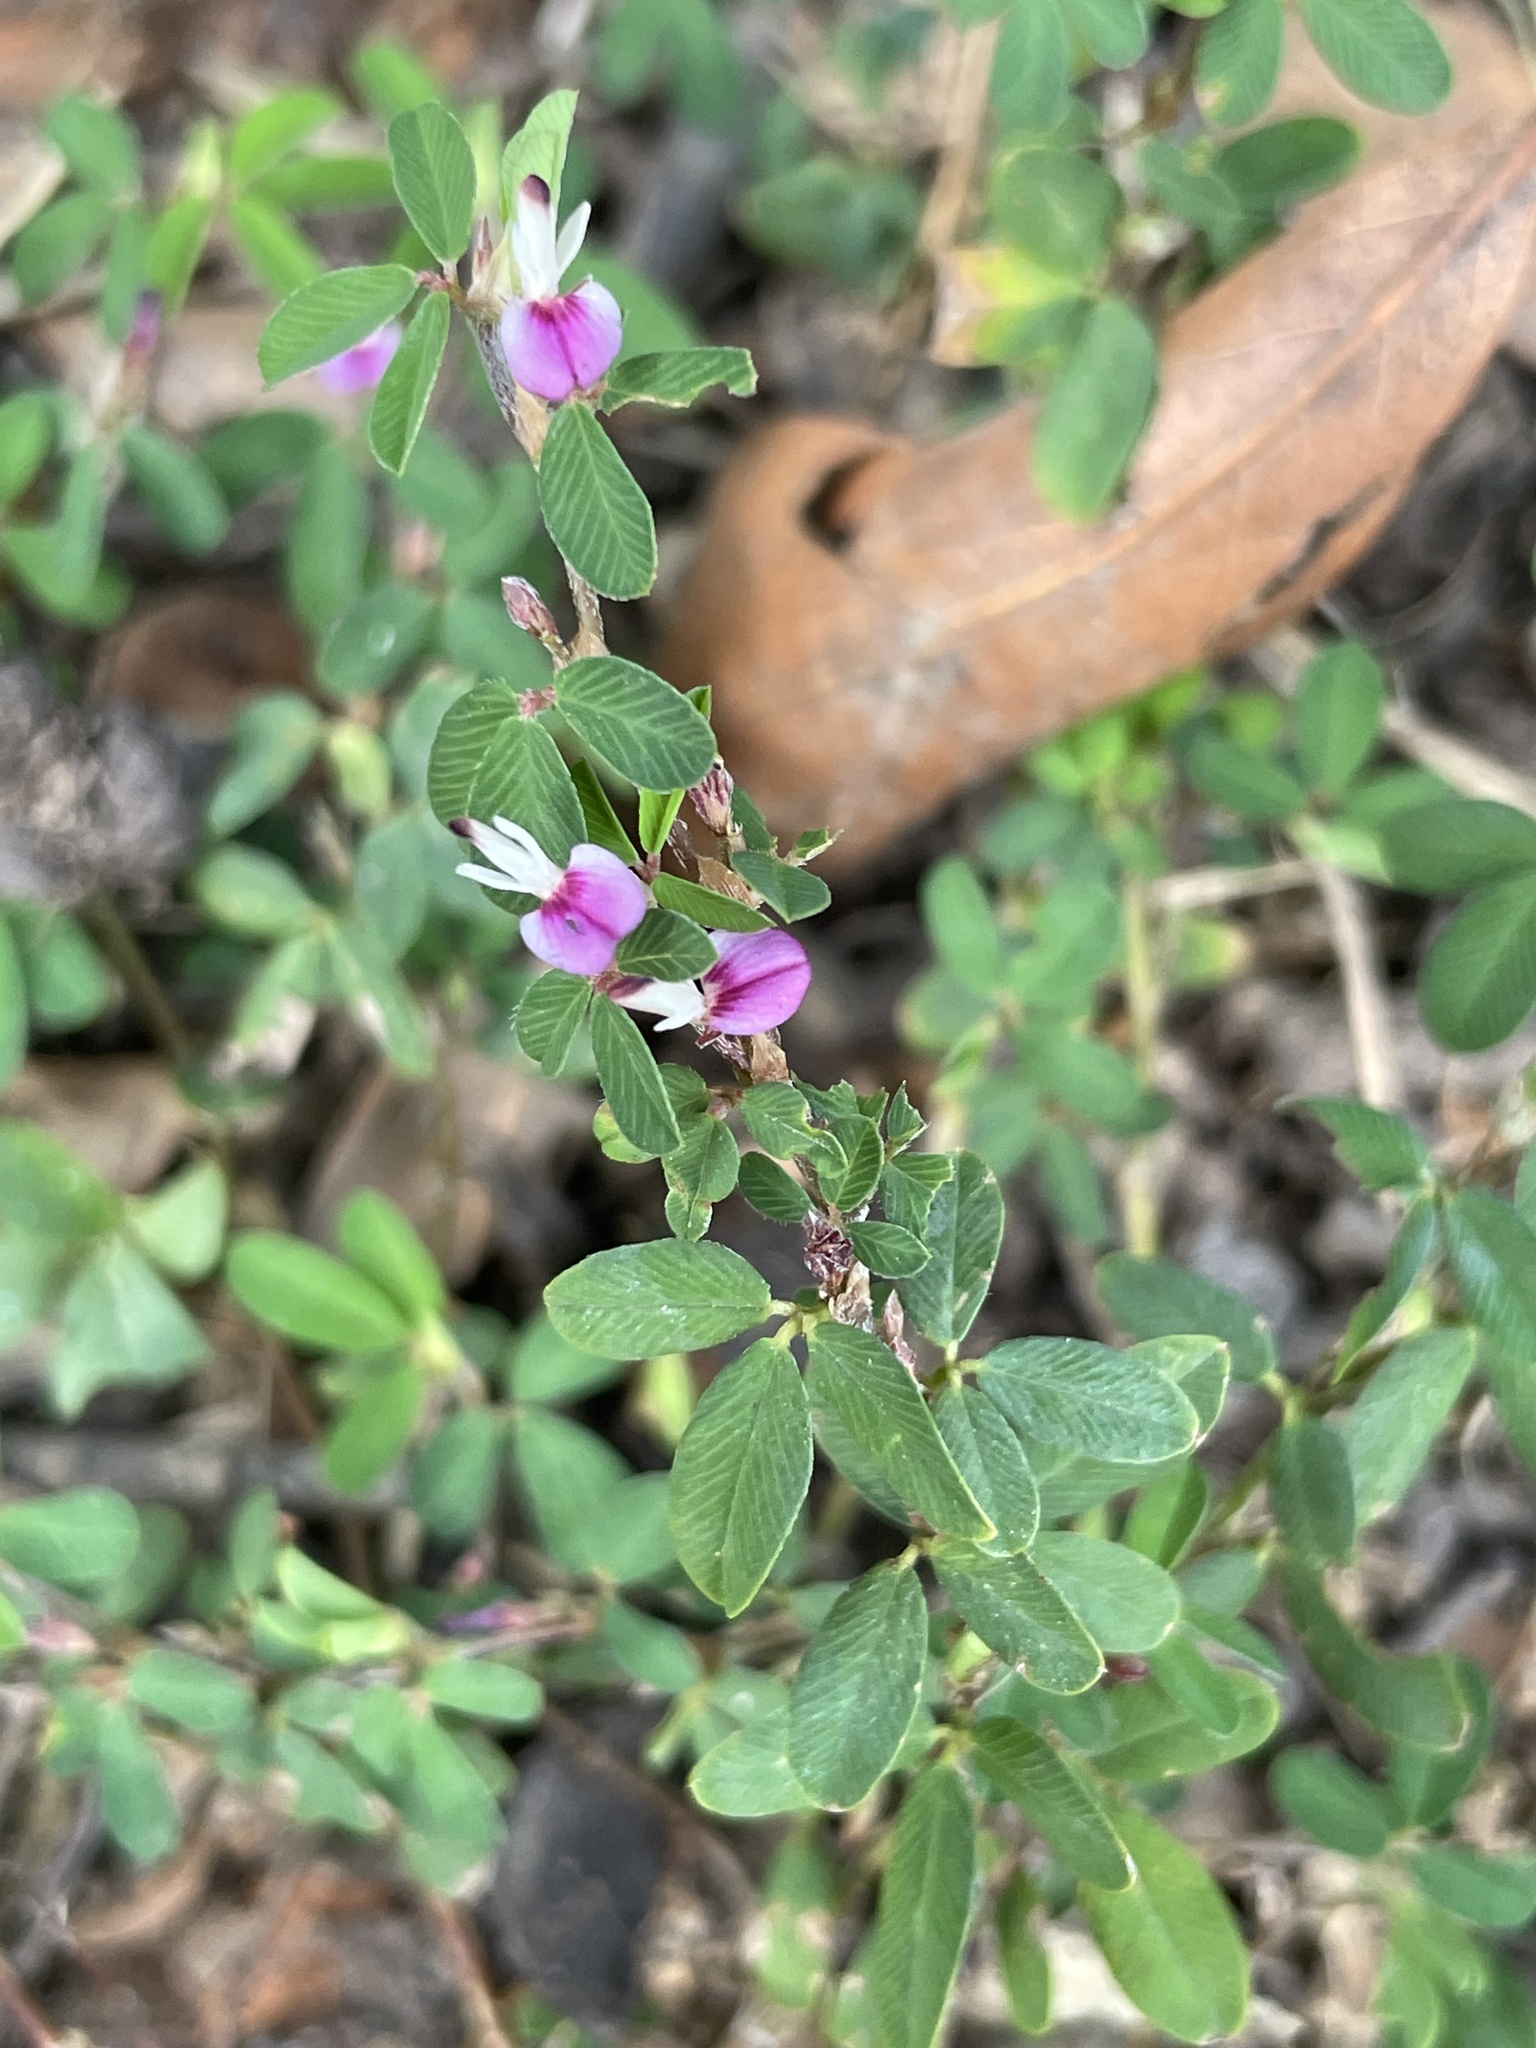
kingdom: Plantae
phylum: Tracheophyta
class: Magnoliopsida
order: Fabales
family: Fabaceae
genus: Kummerowia
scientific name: Kummerowia striata
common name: Japanese clover
